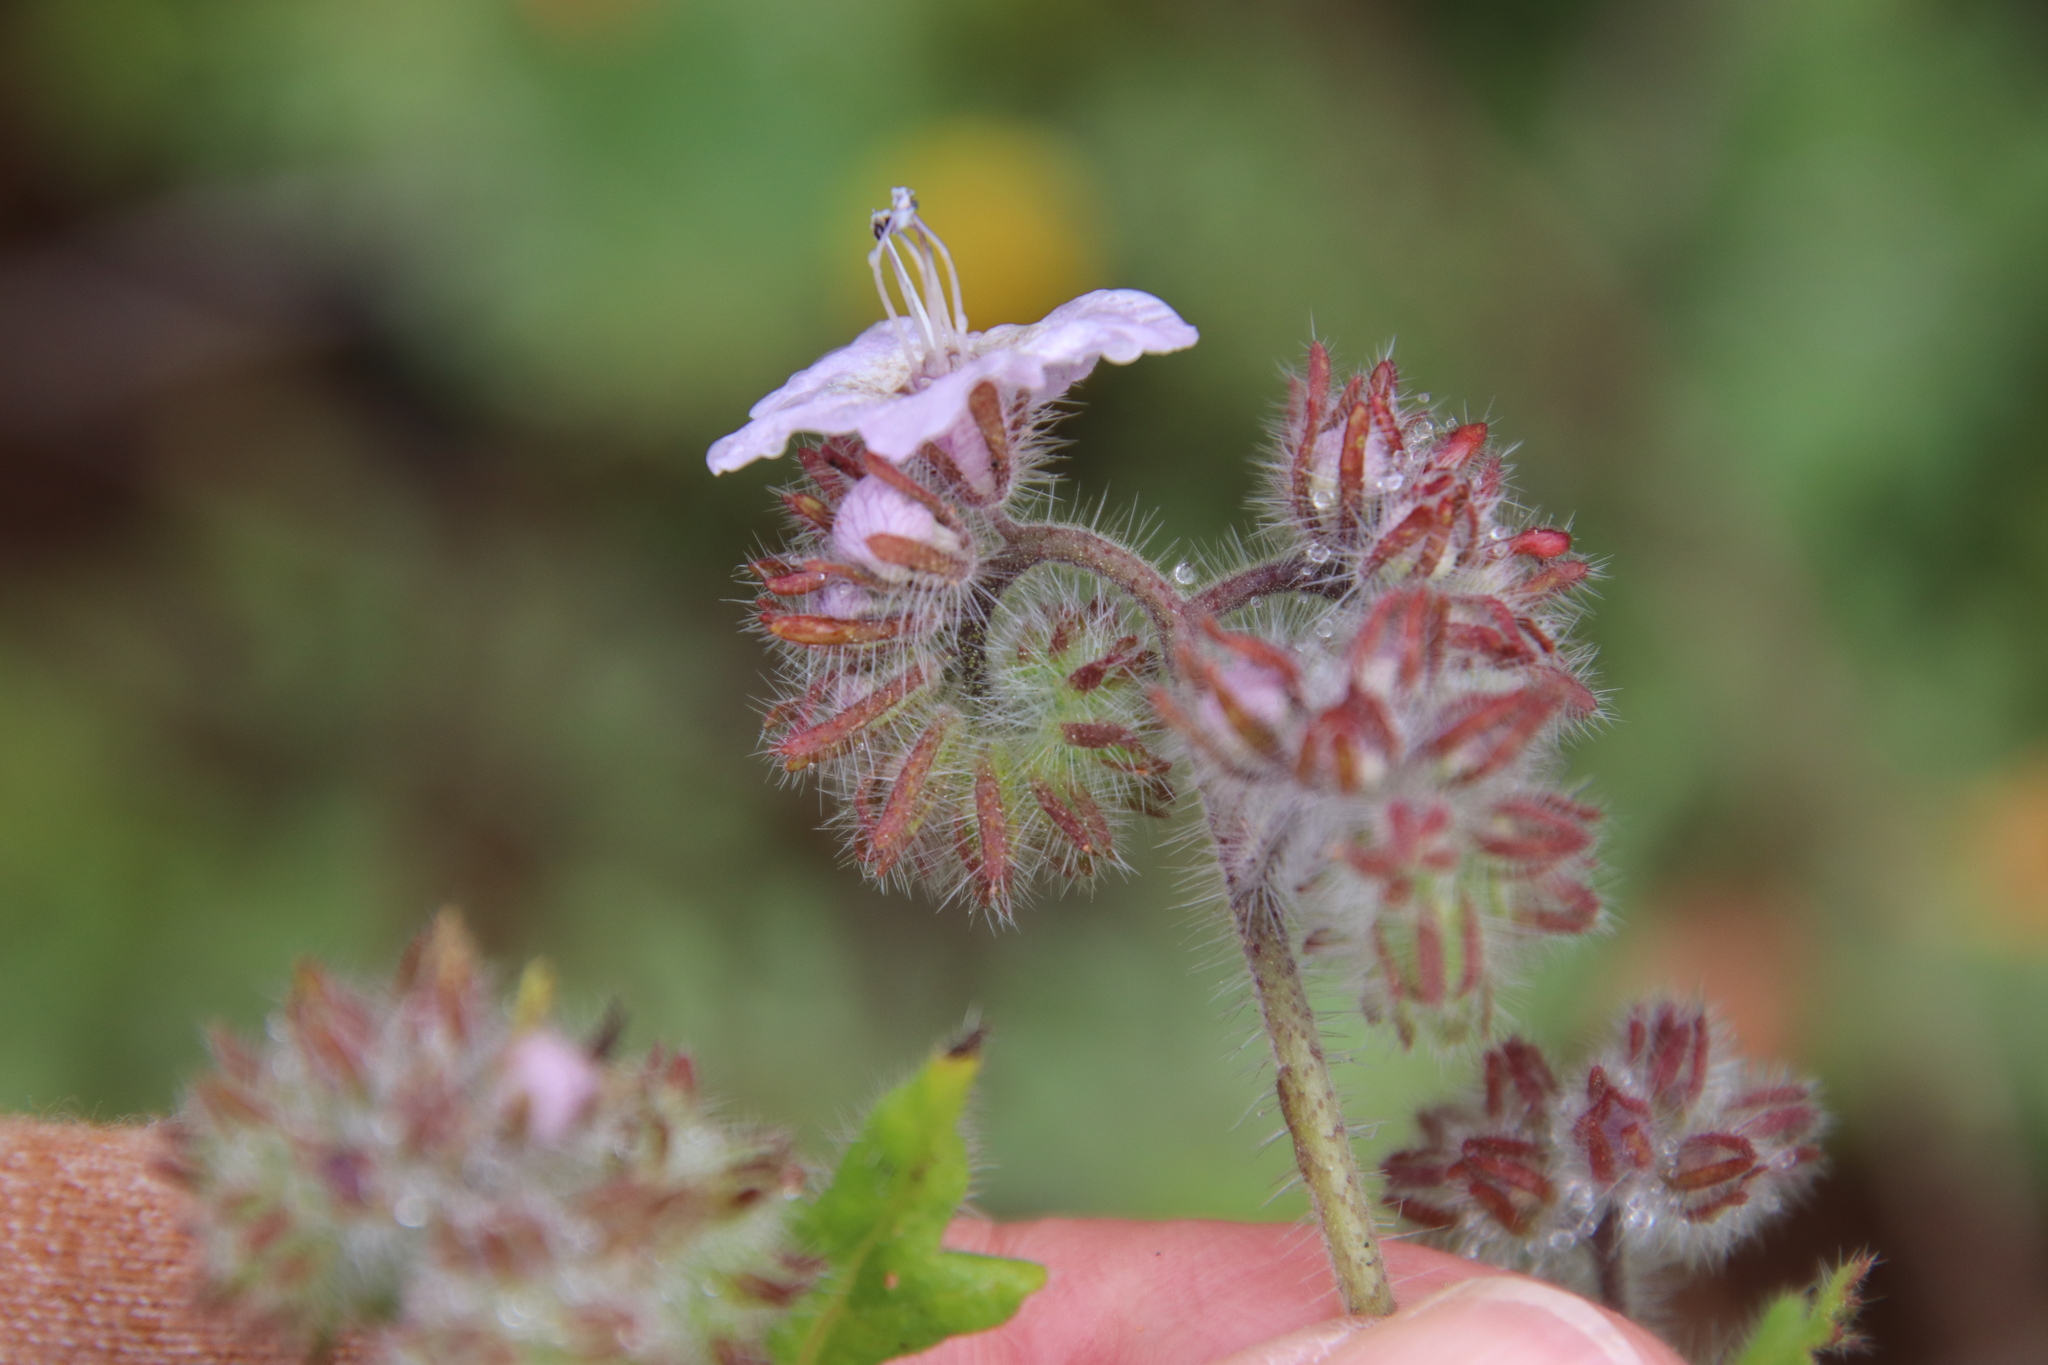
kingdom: Plantae
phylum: Tracheophyta
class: Magnoliopsida
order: Boraginales
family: Hydrophyllaceae
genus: Phacelia
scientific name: Phacelia cicutaria
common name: Caterpillar phacelia
